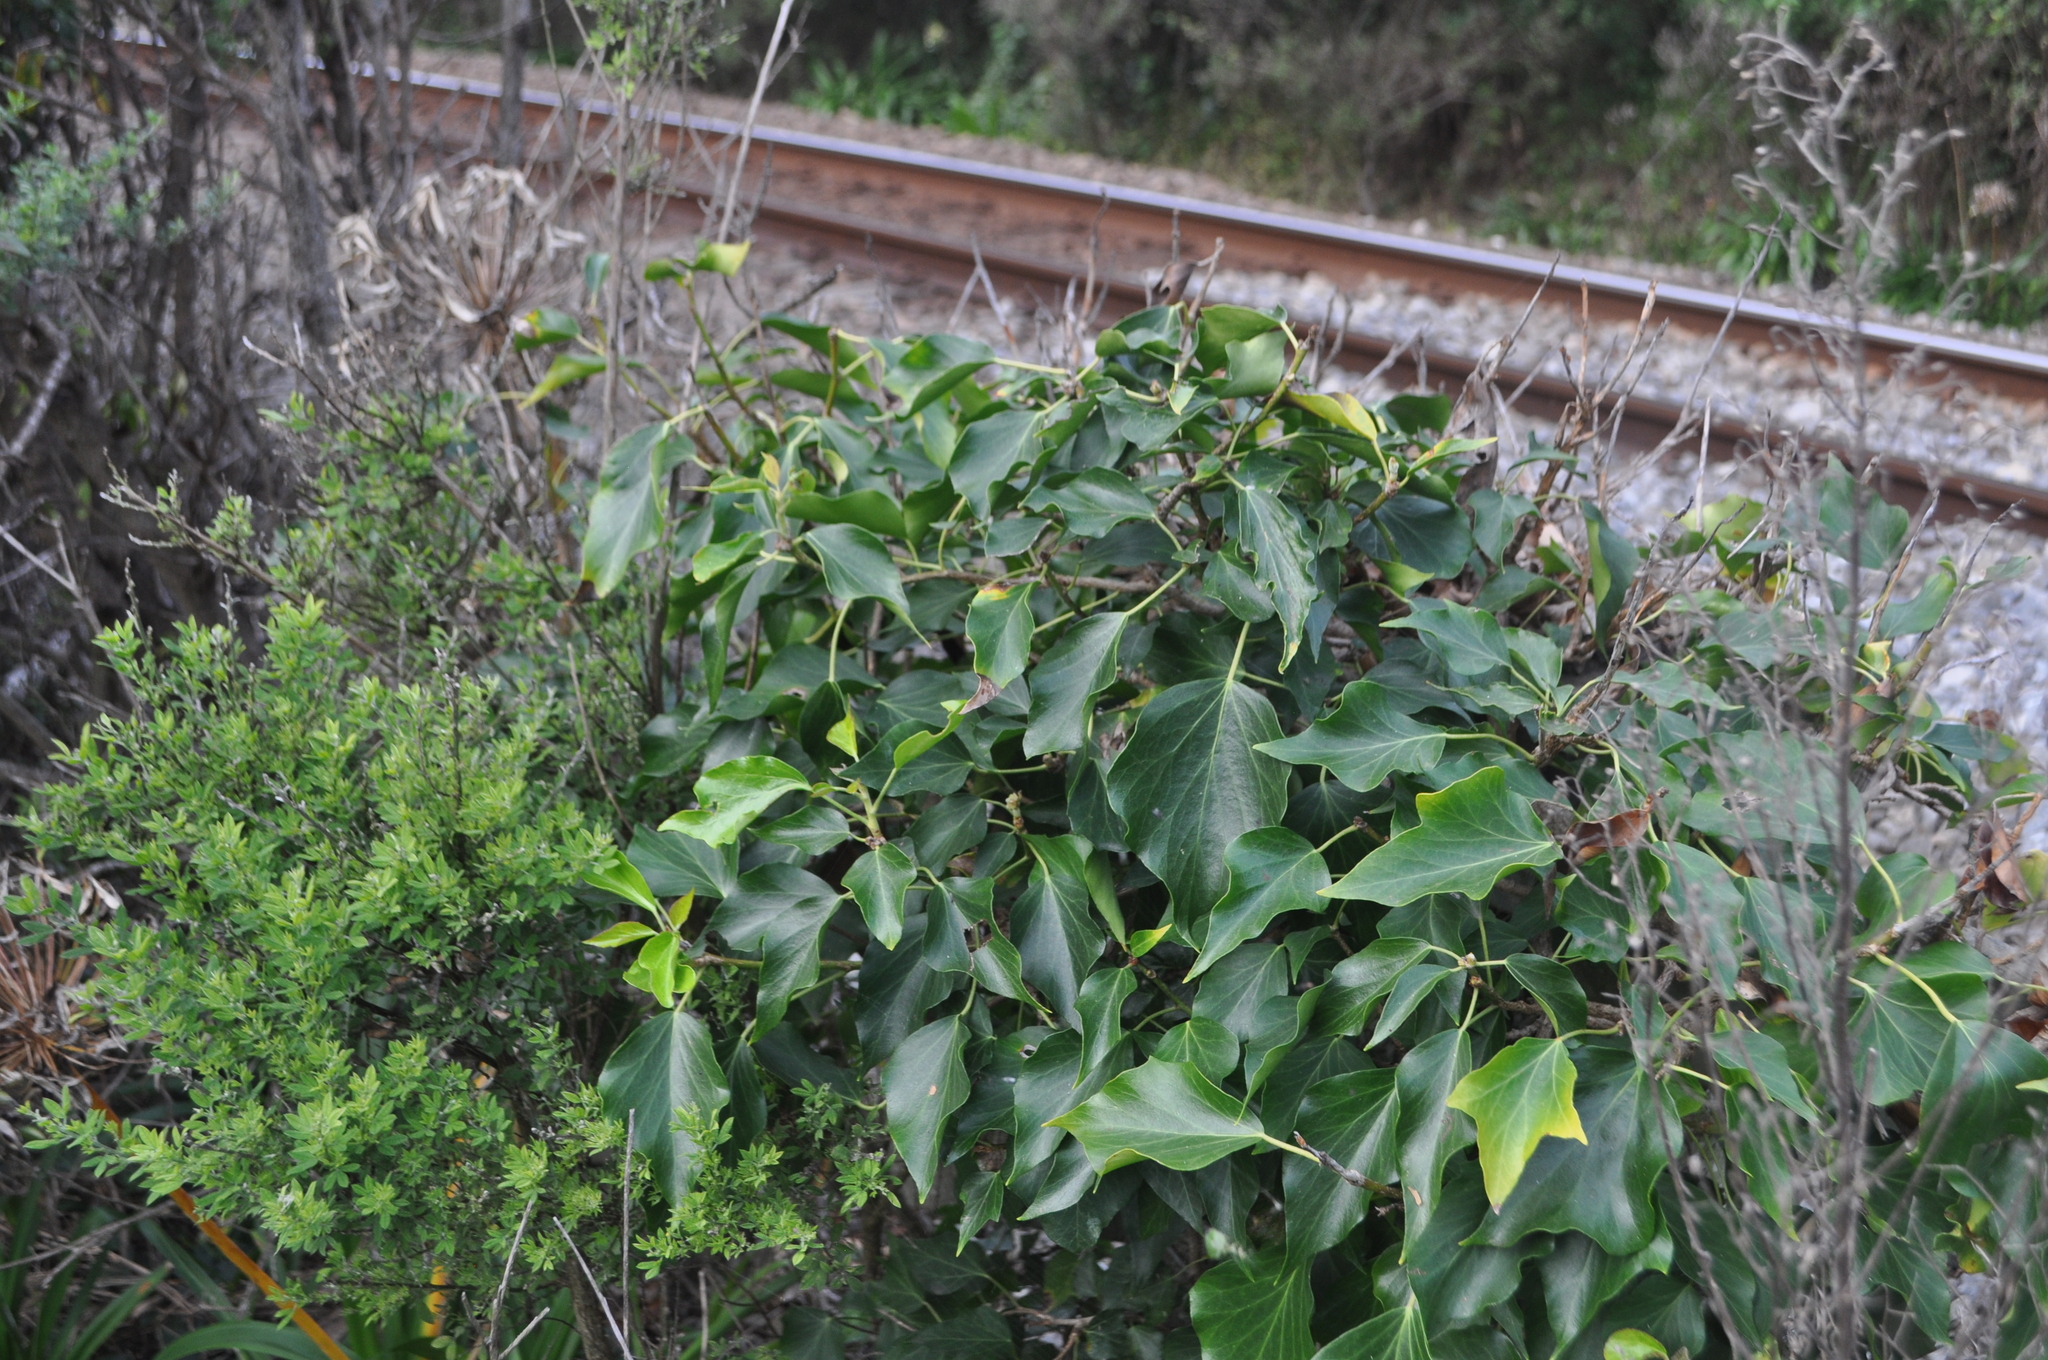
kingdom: Plantae
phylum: Tracheophyta
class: Magnoliopsida
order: Apiales
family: Araliaceae
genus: Hedera
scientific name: Hedera helix
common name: Ivy
